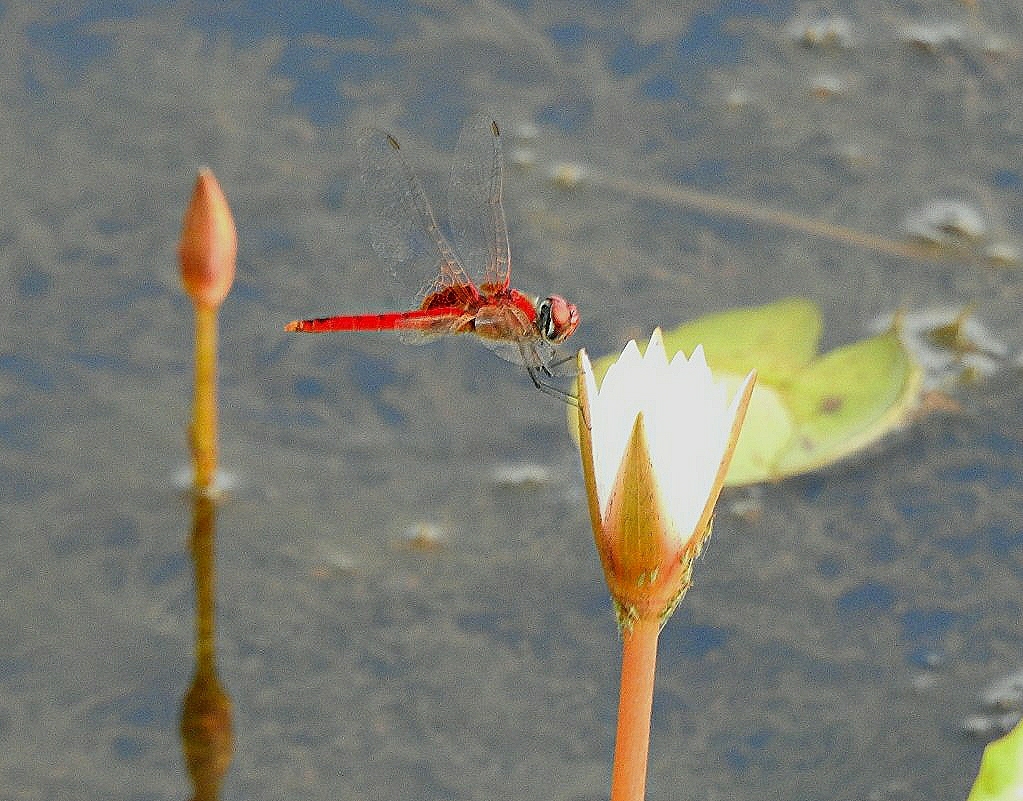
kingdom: Animalia
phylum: Arthropoda
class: Insecta
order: Odonata
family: Libellulidae
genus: Urothemis
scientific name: Urothemis signata
